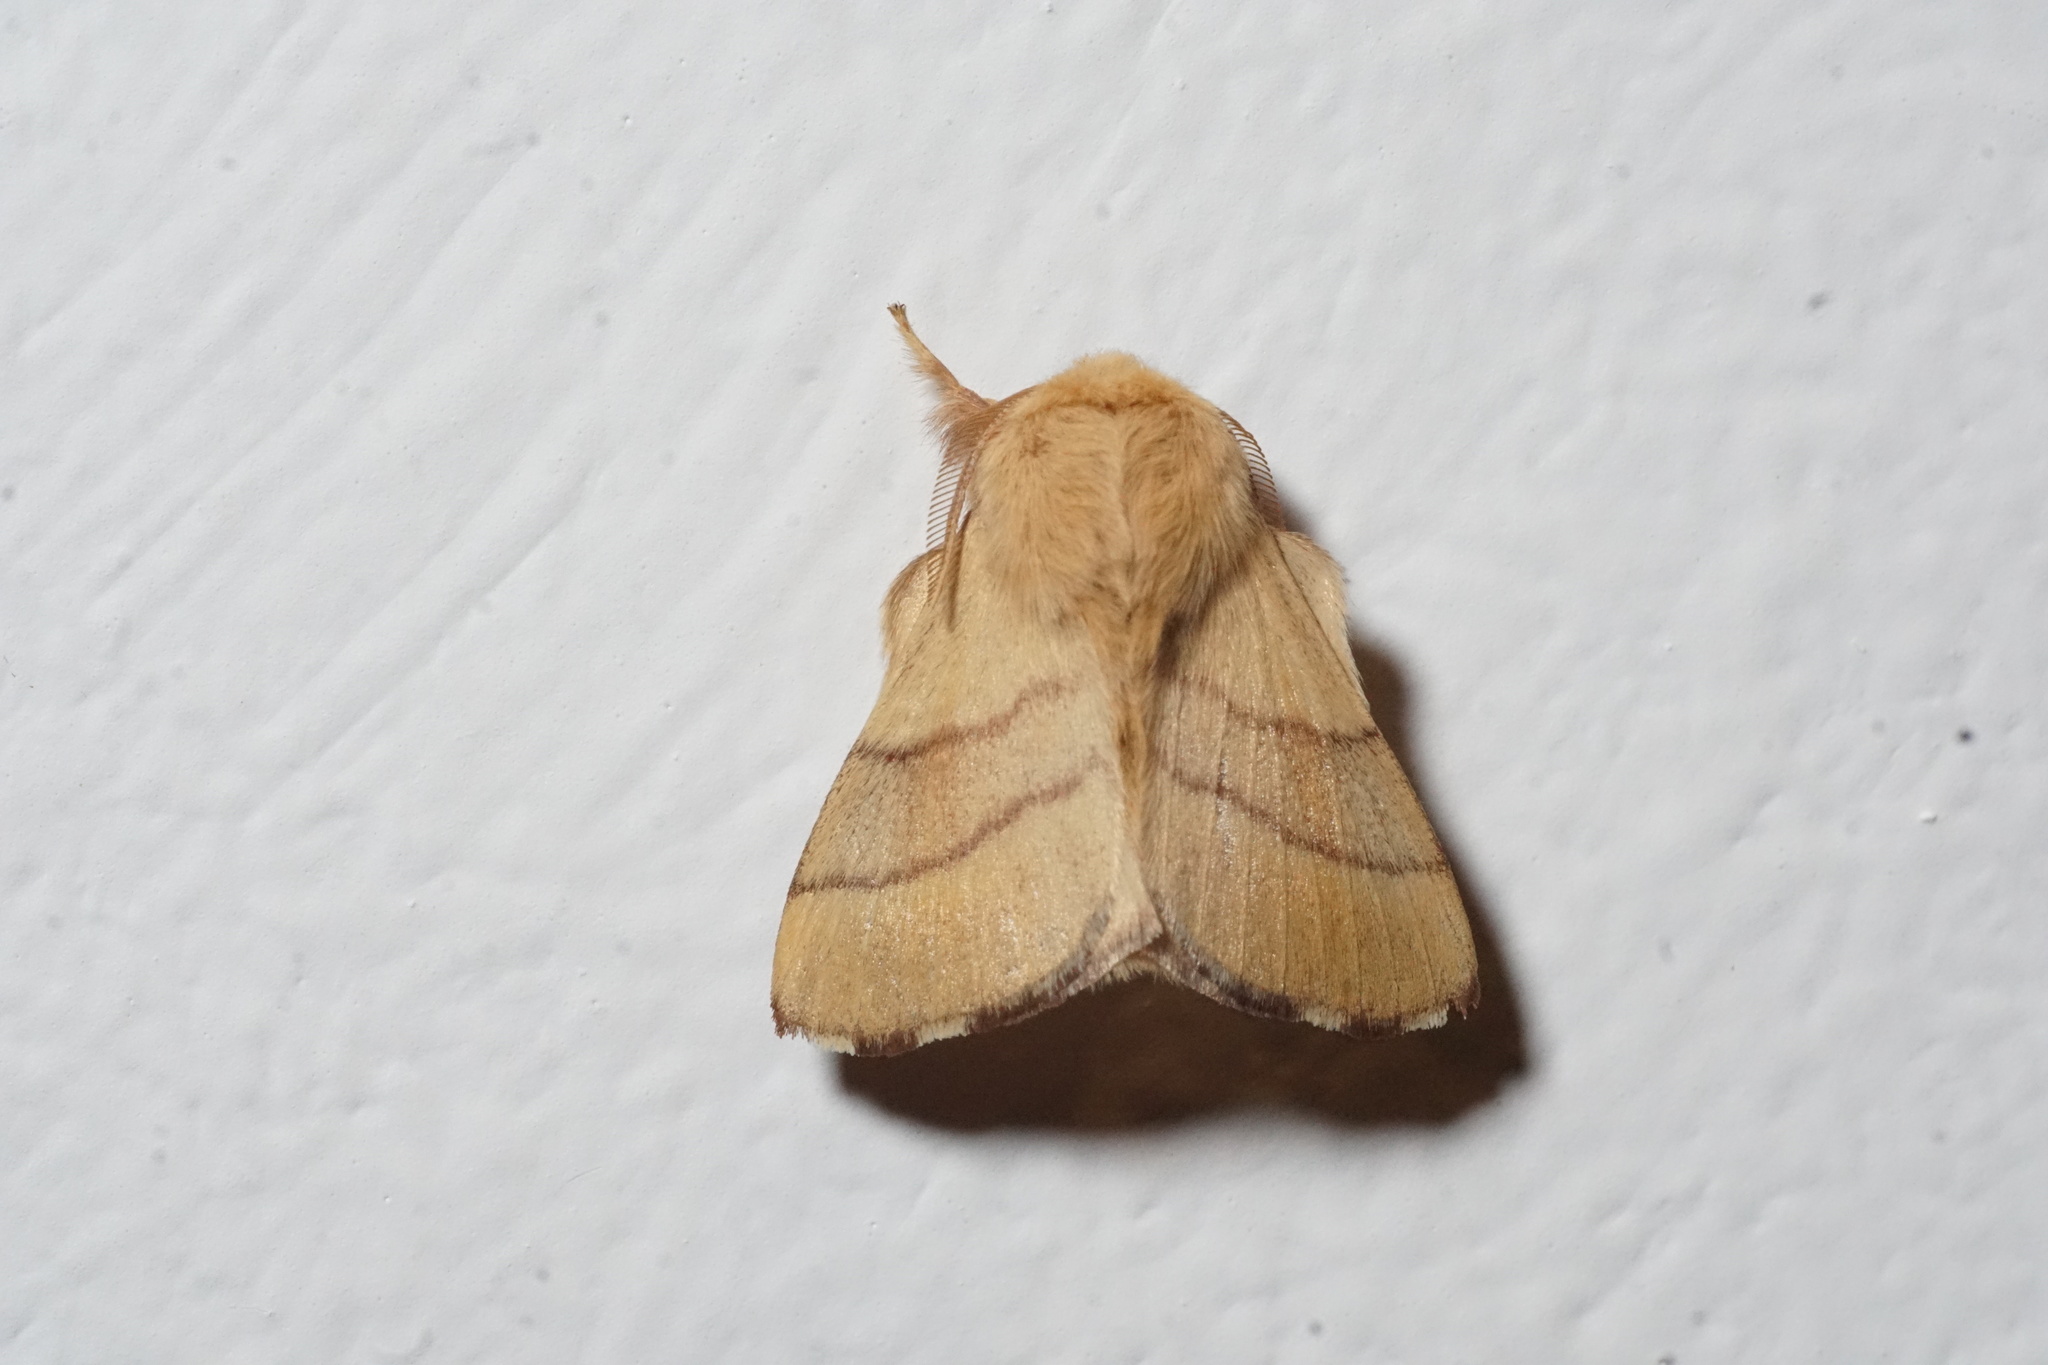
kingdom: Animalia
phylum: Arthropoda
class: Insecta
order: Lepidoptera
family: Lasiocampidae
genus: Malacosoma
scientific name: Malacosoma neustria
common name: The lackey
